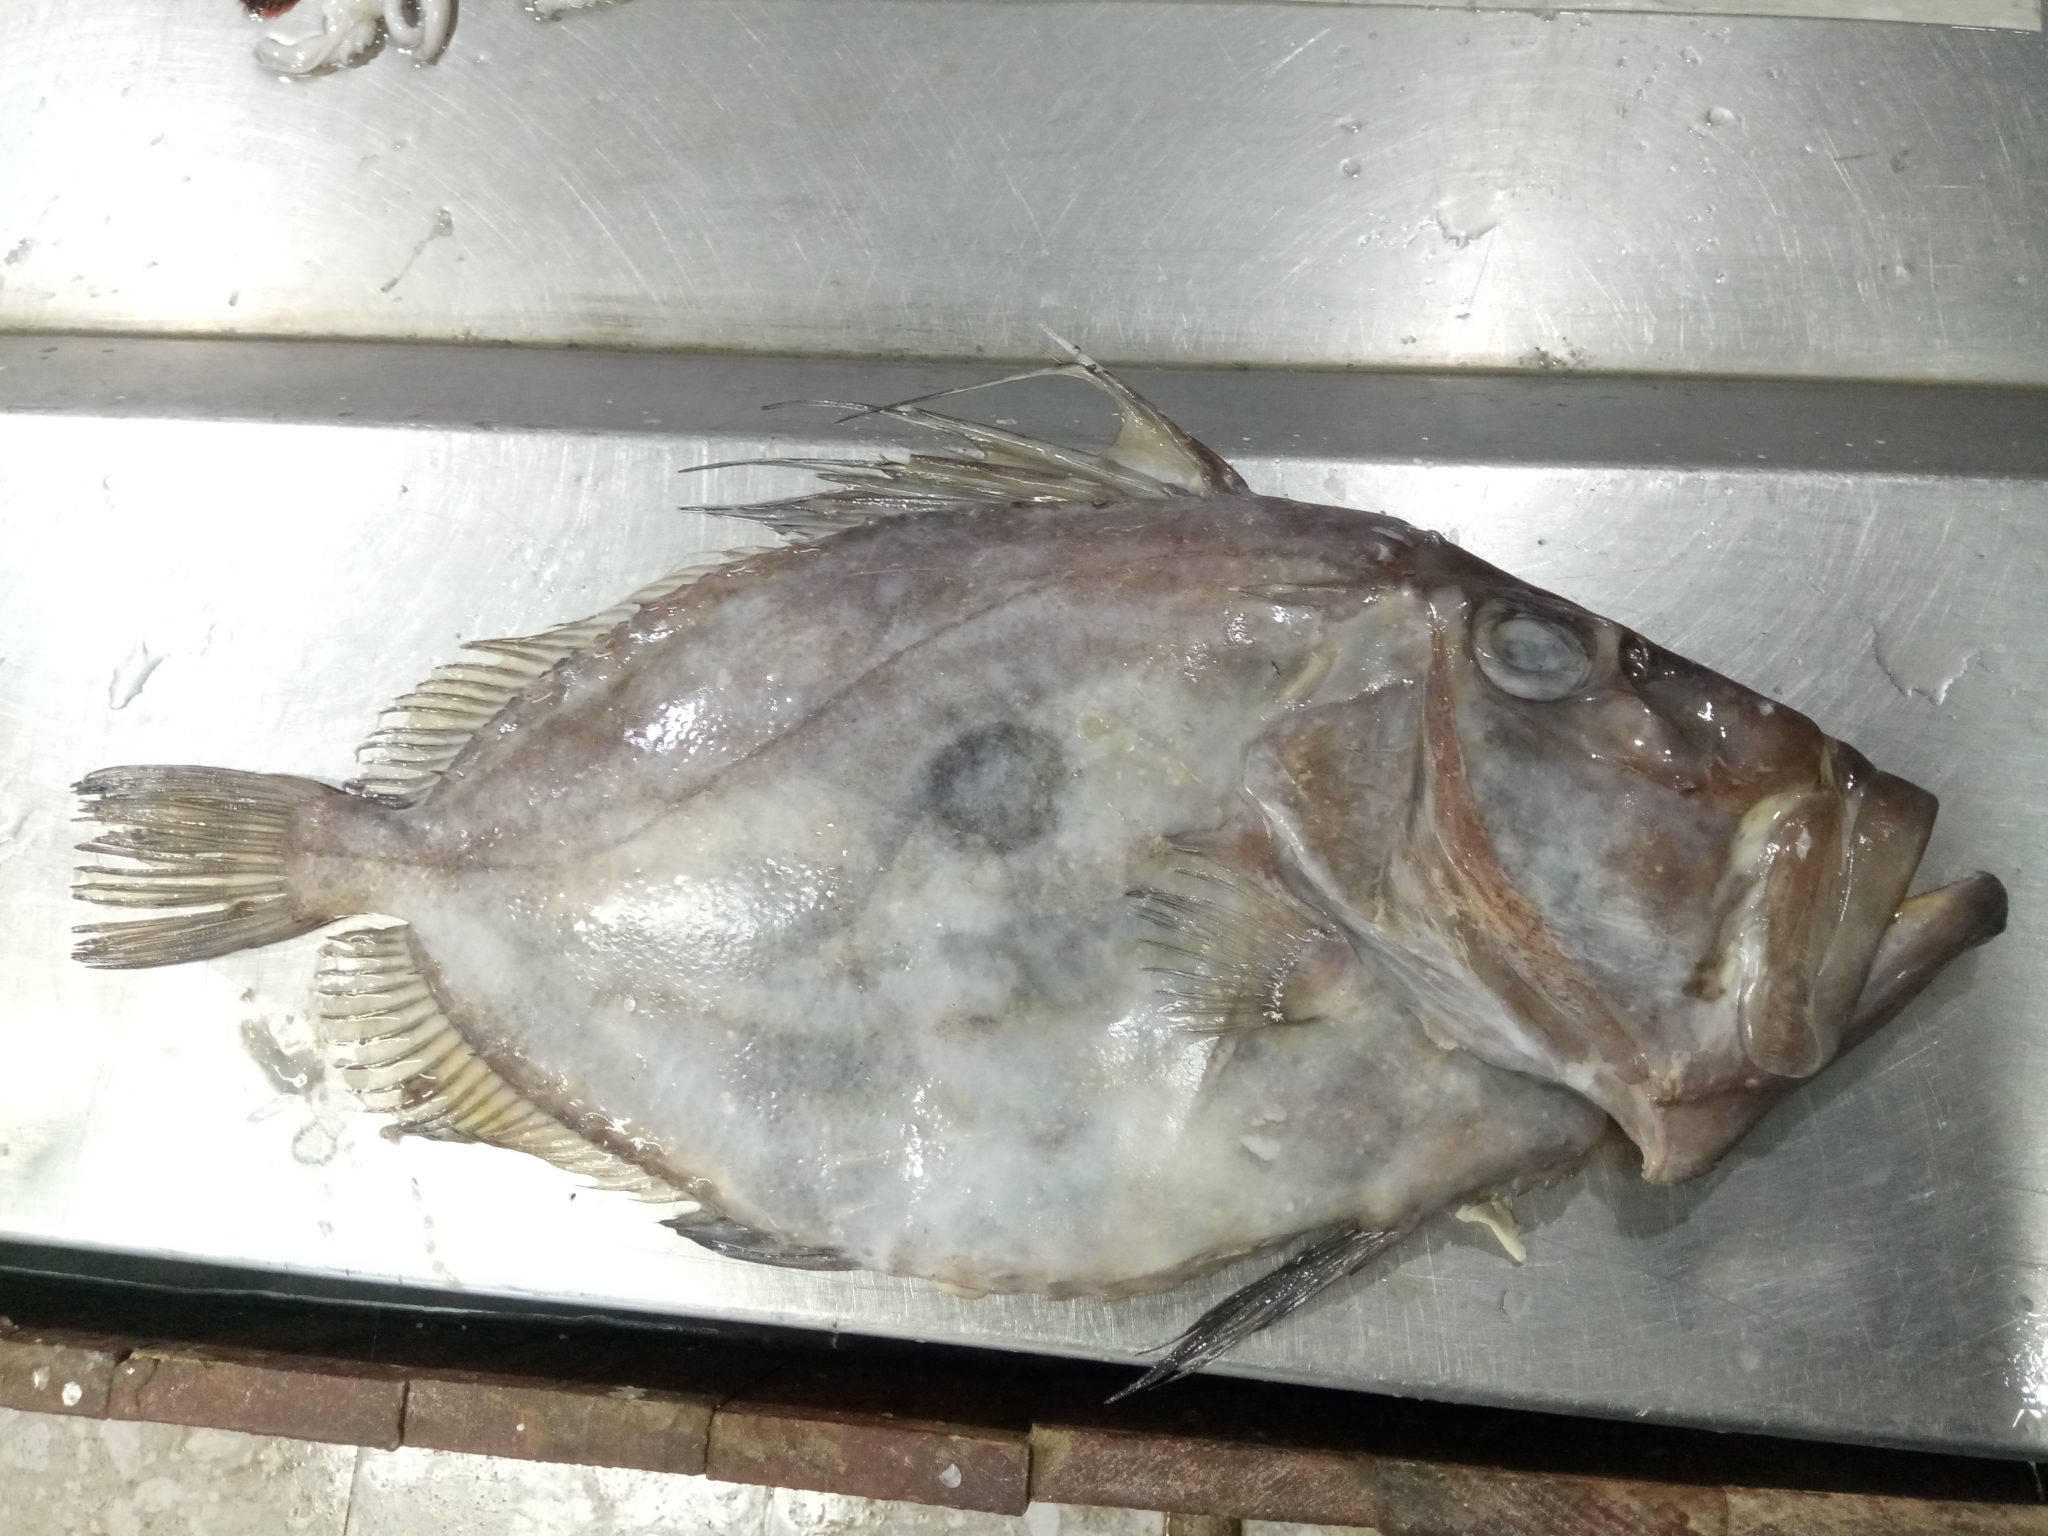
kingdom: Animalia
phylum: Chordata
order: Zeiformes
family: Zeidae
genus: Zeus
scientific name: Zeus faber
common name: John dory
